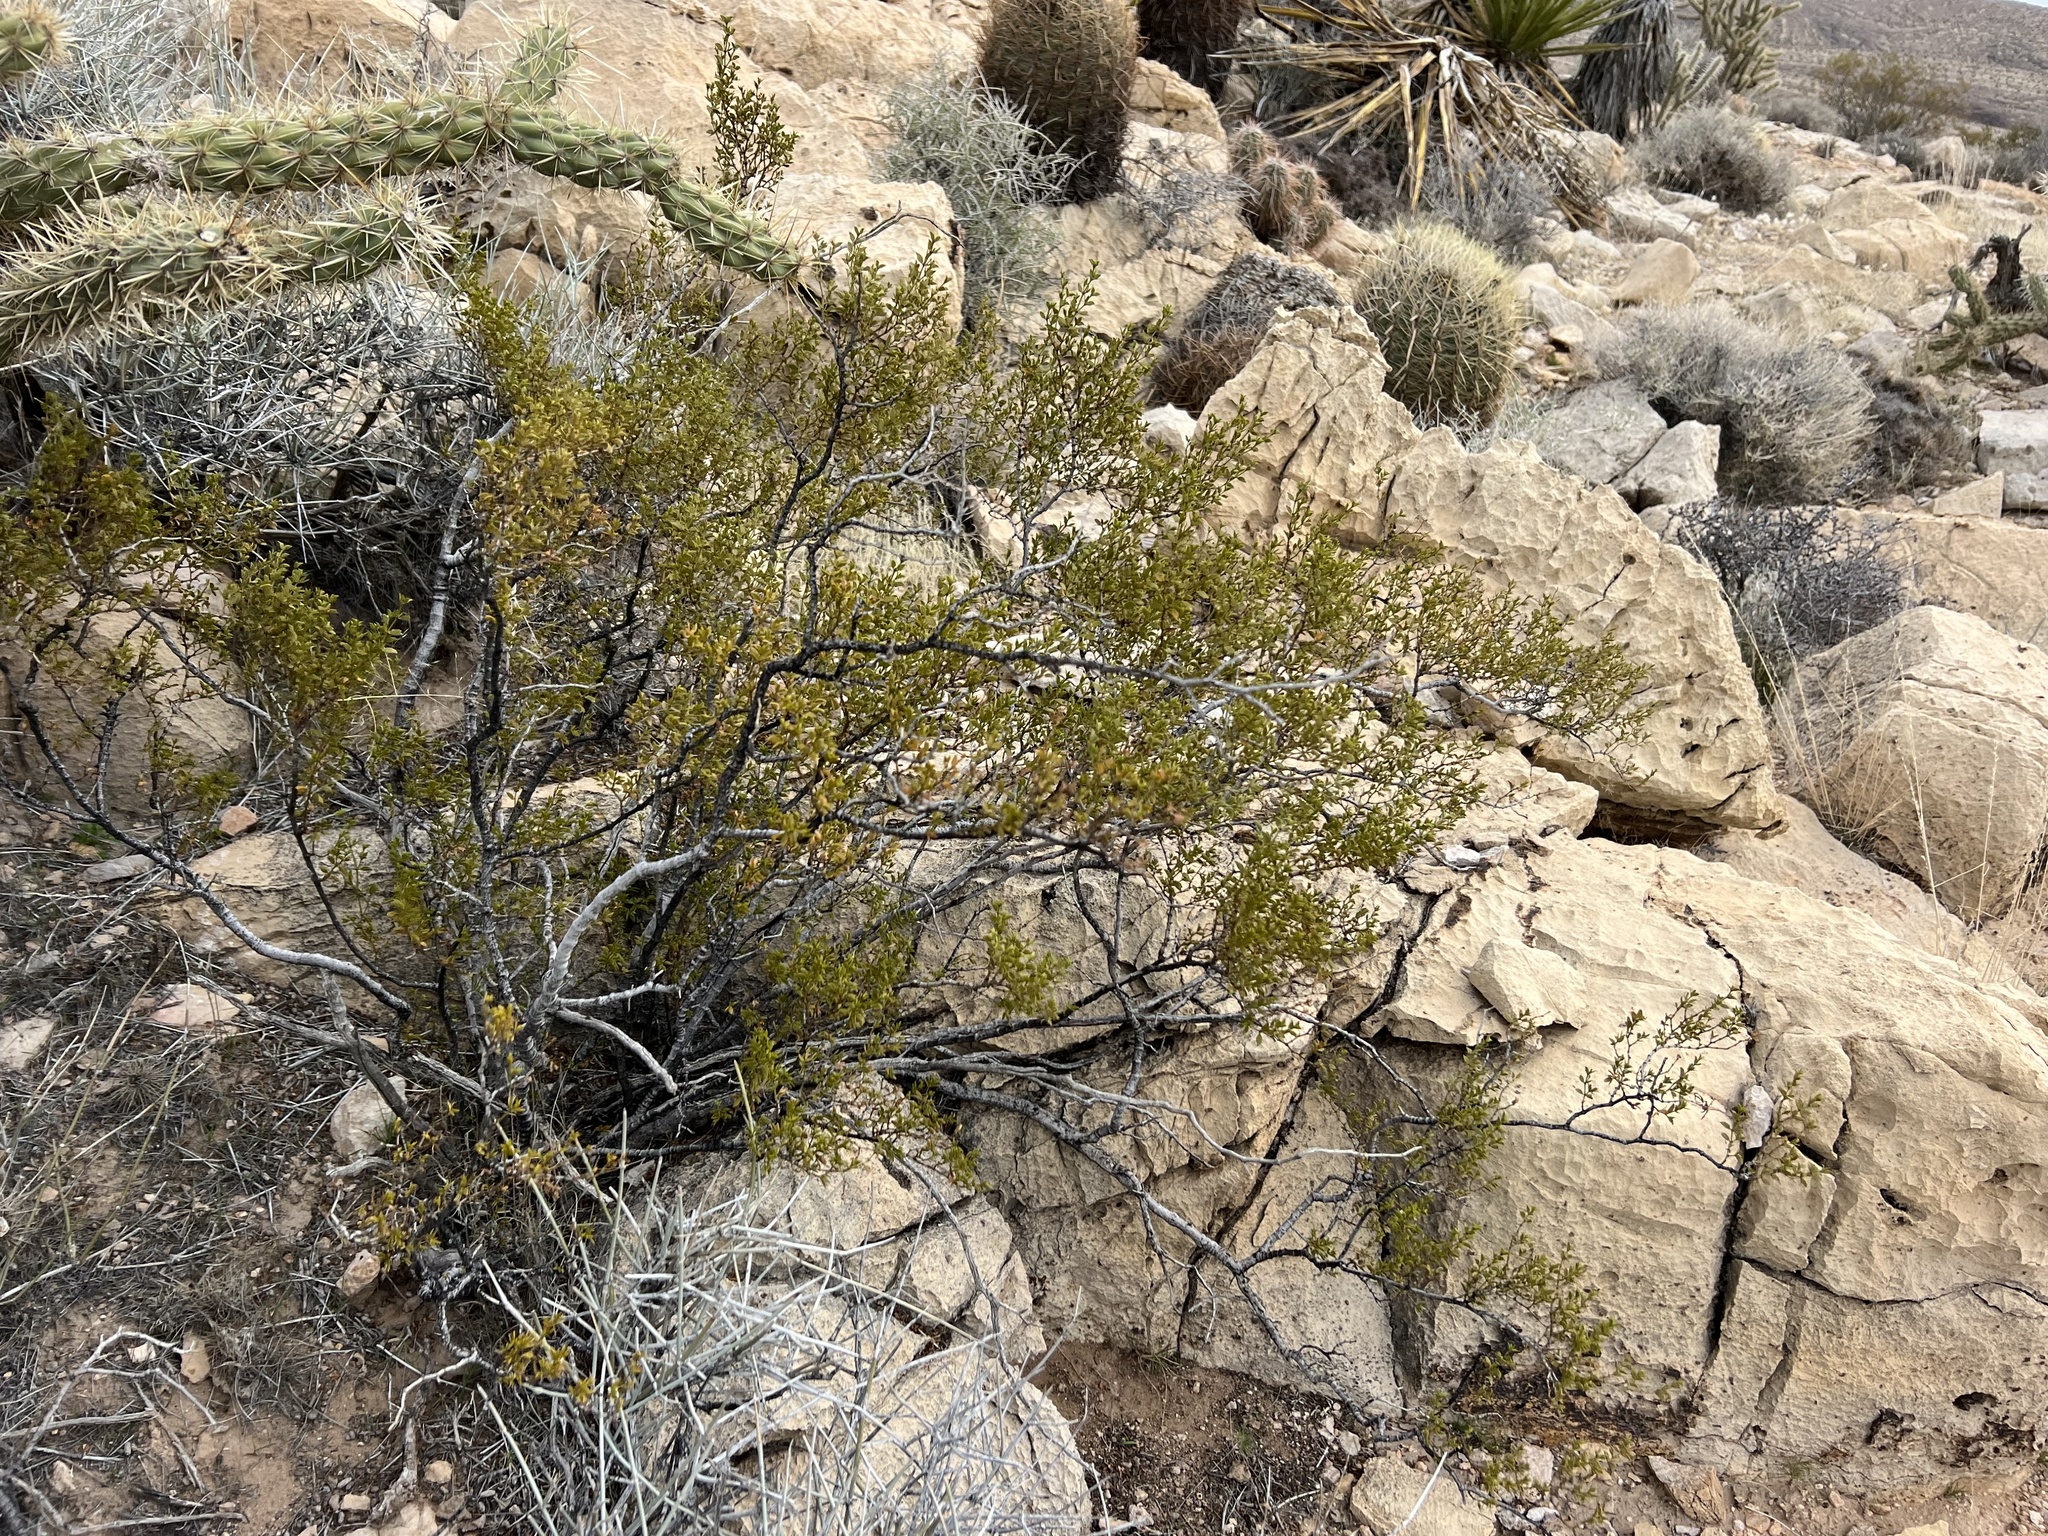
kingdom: Plantae
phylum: Tracheophyta
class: Magnoliopsida
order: Zygophyllales
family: Zygophyllaceae
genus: Larrea
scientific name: Larrea tridentata
